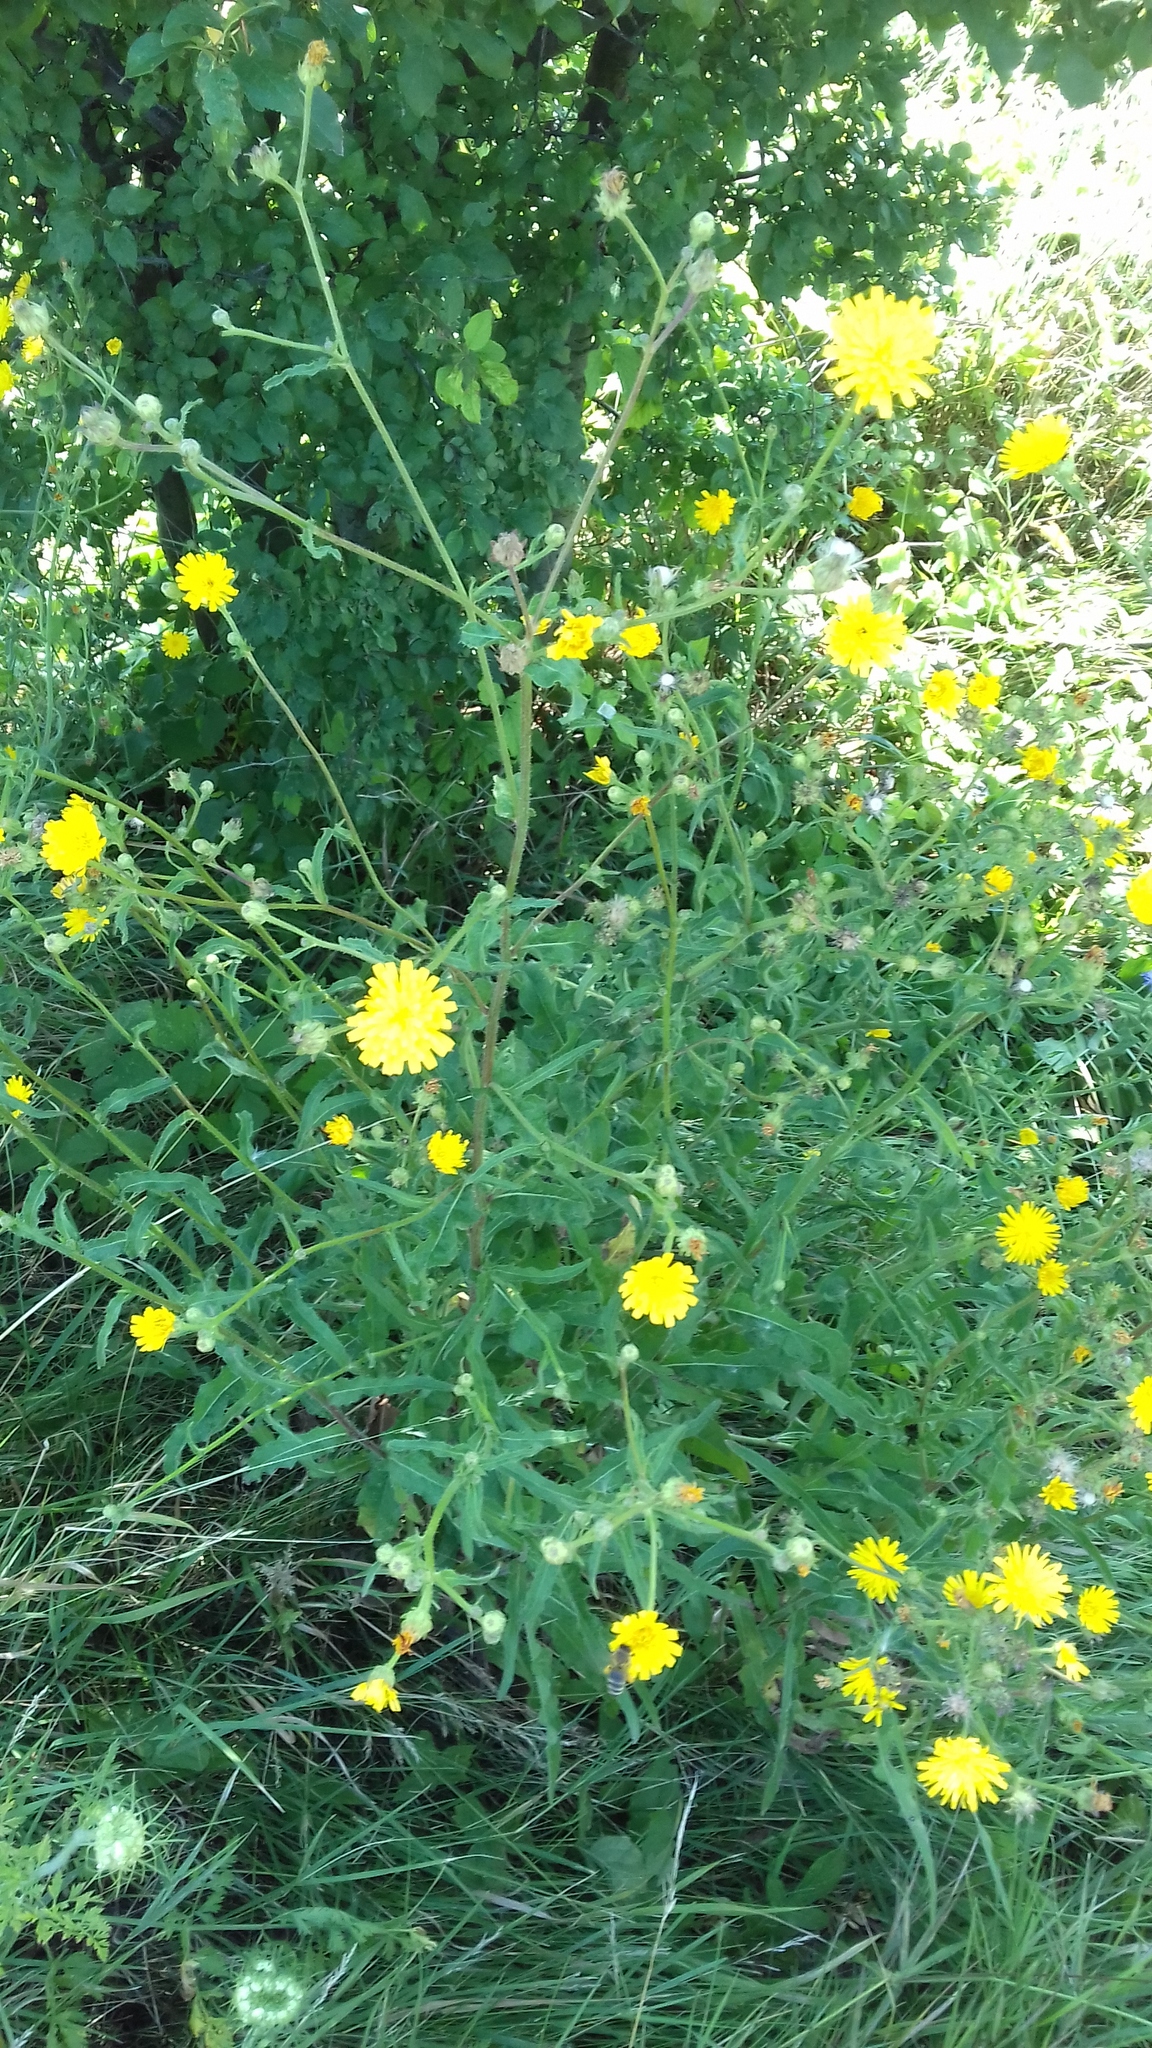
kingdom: Plantae
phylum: Tracheophyta
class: Magnoliopsida
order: Asterales
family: Asteraceae
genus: Picris
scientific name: Picris hieracioides
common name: Hawkweed oxtongue
